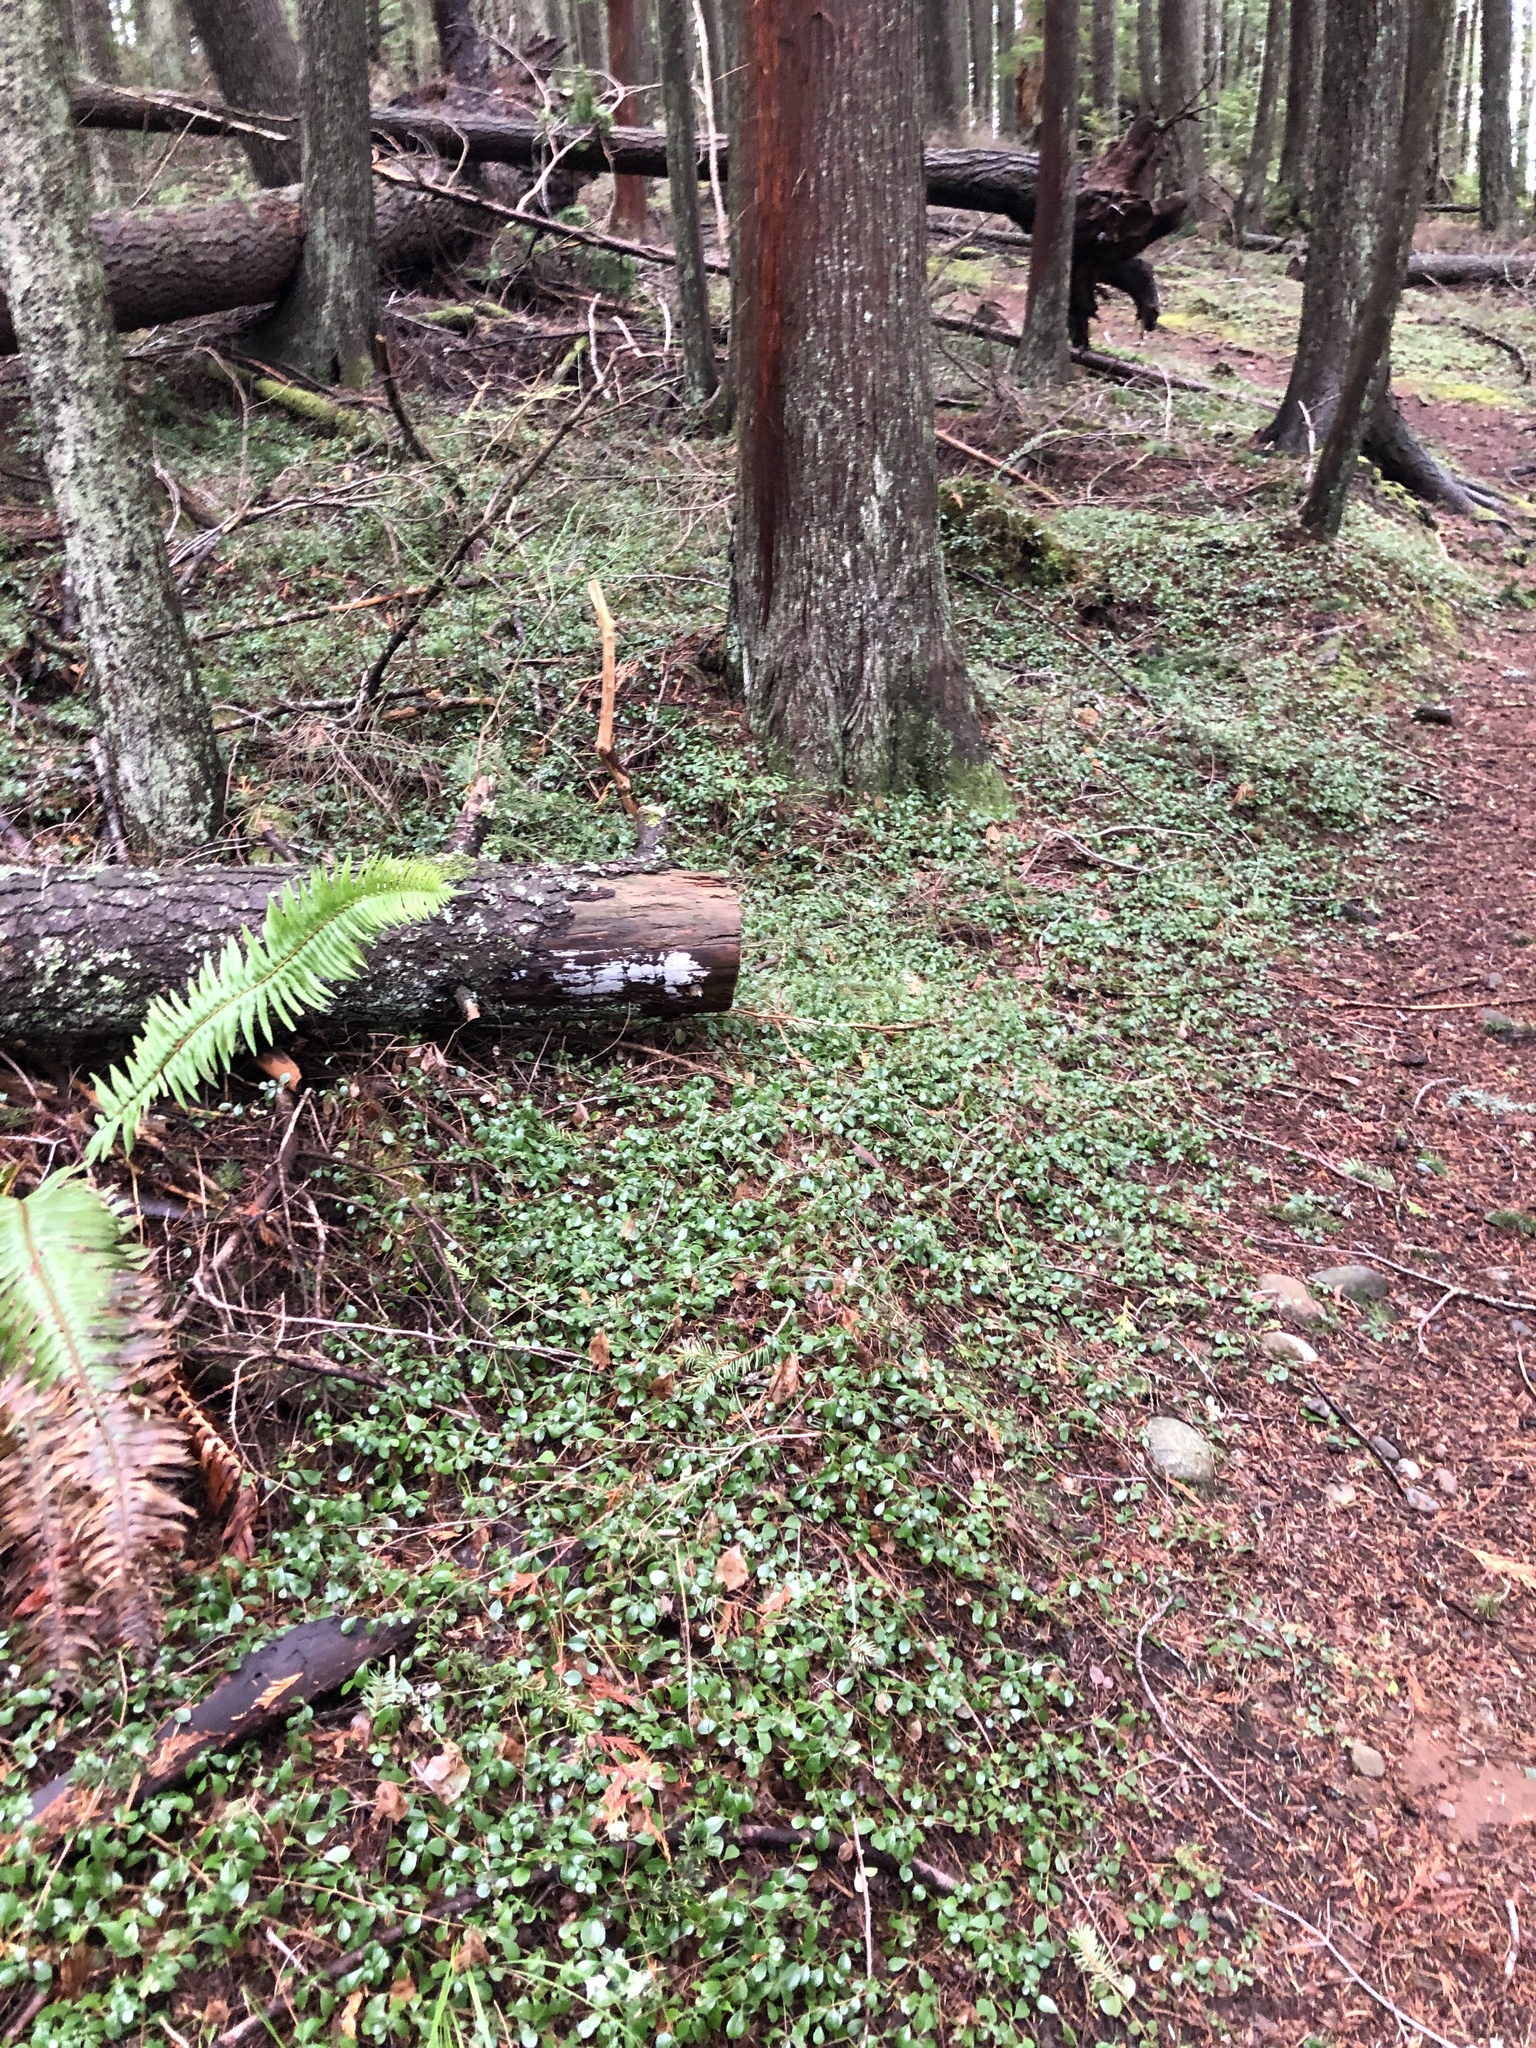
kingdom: Plantae
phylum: Tracheophyta
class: Magnoliopsida
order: Dipsacales
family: Caprifoliaceae
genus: Linnaea
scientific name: Linnaea borealis
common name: Twinflower
